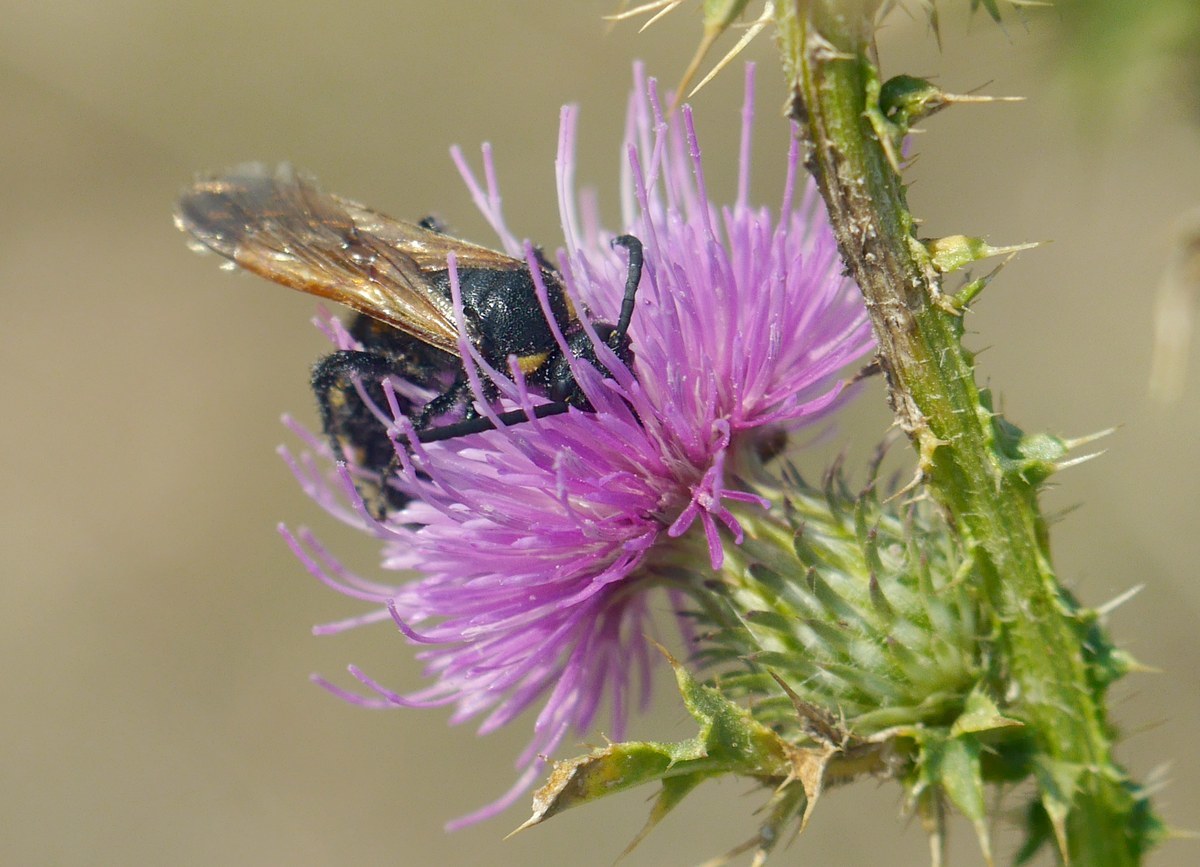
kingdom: Animalia
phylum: Arthropoda
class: Insecta
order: Hymenoptera
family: Scoliidae
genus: Scolia
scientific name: Scolia fuciformis
